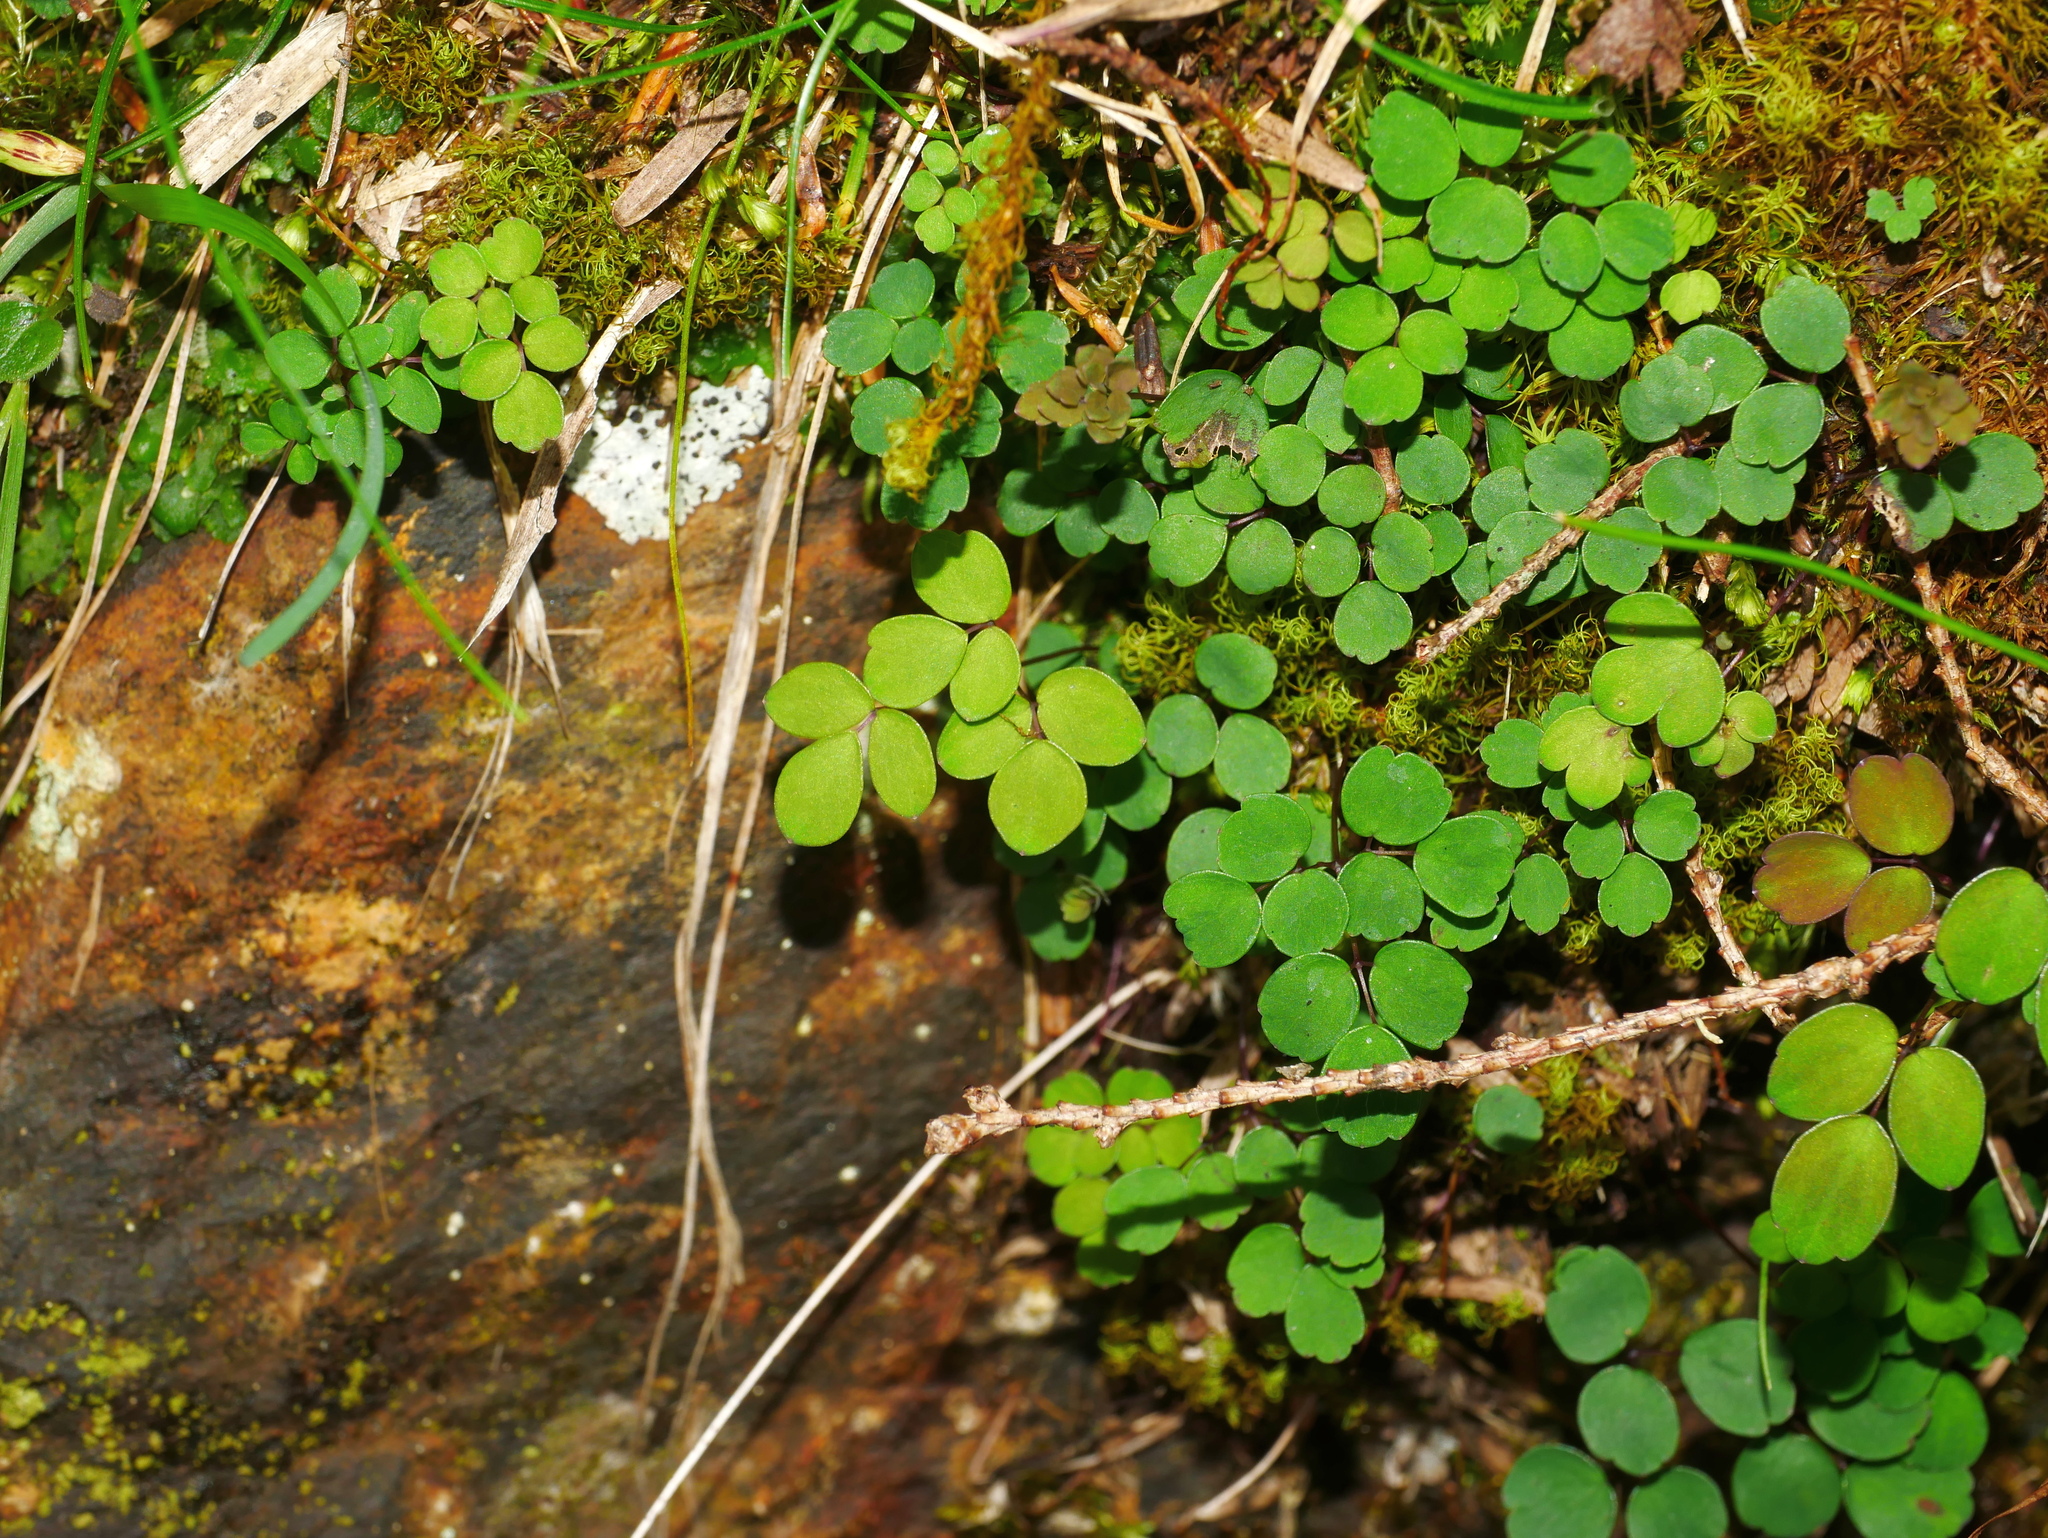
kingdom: Plantae
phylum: Tracheophyta
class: Magnoliopsida
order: Ranunculales
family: Ranunculaceae
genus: Thalictrum
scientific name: Thalictrum urbaini
